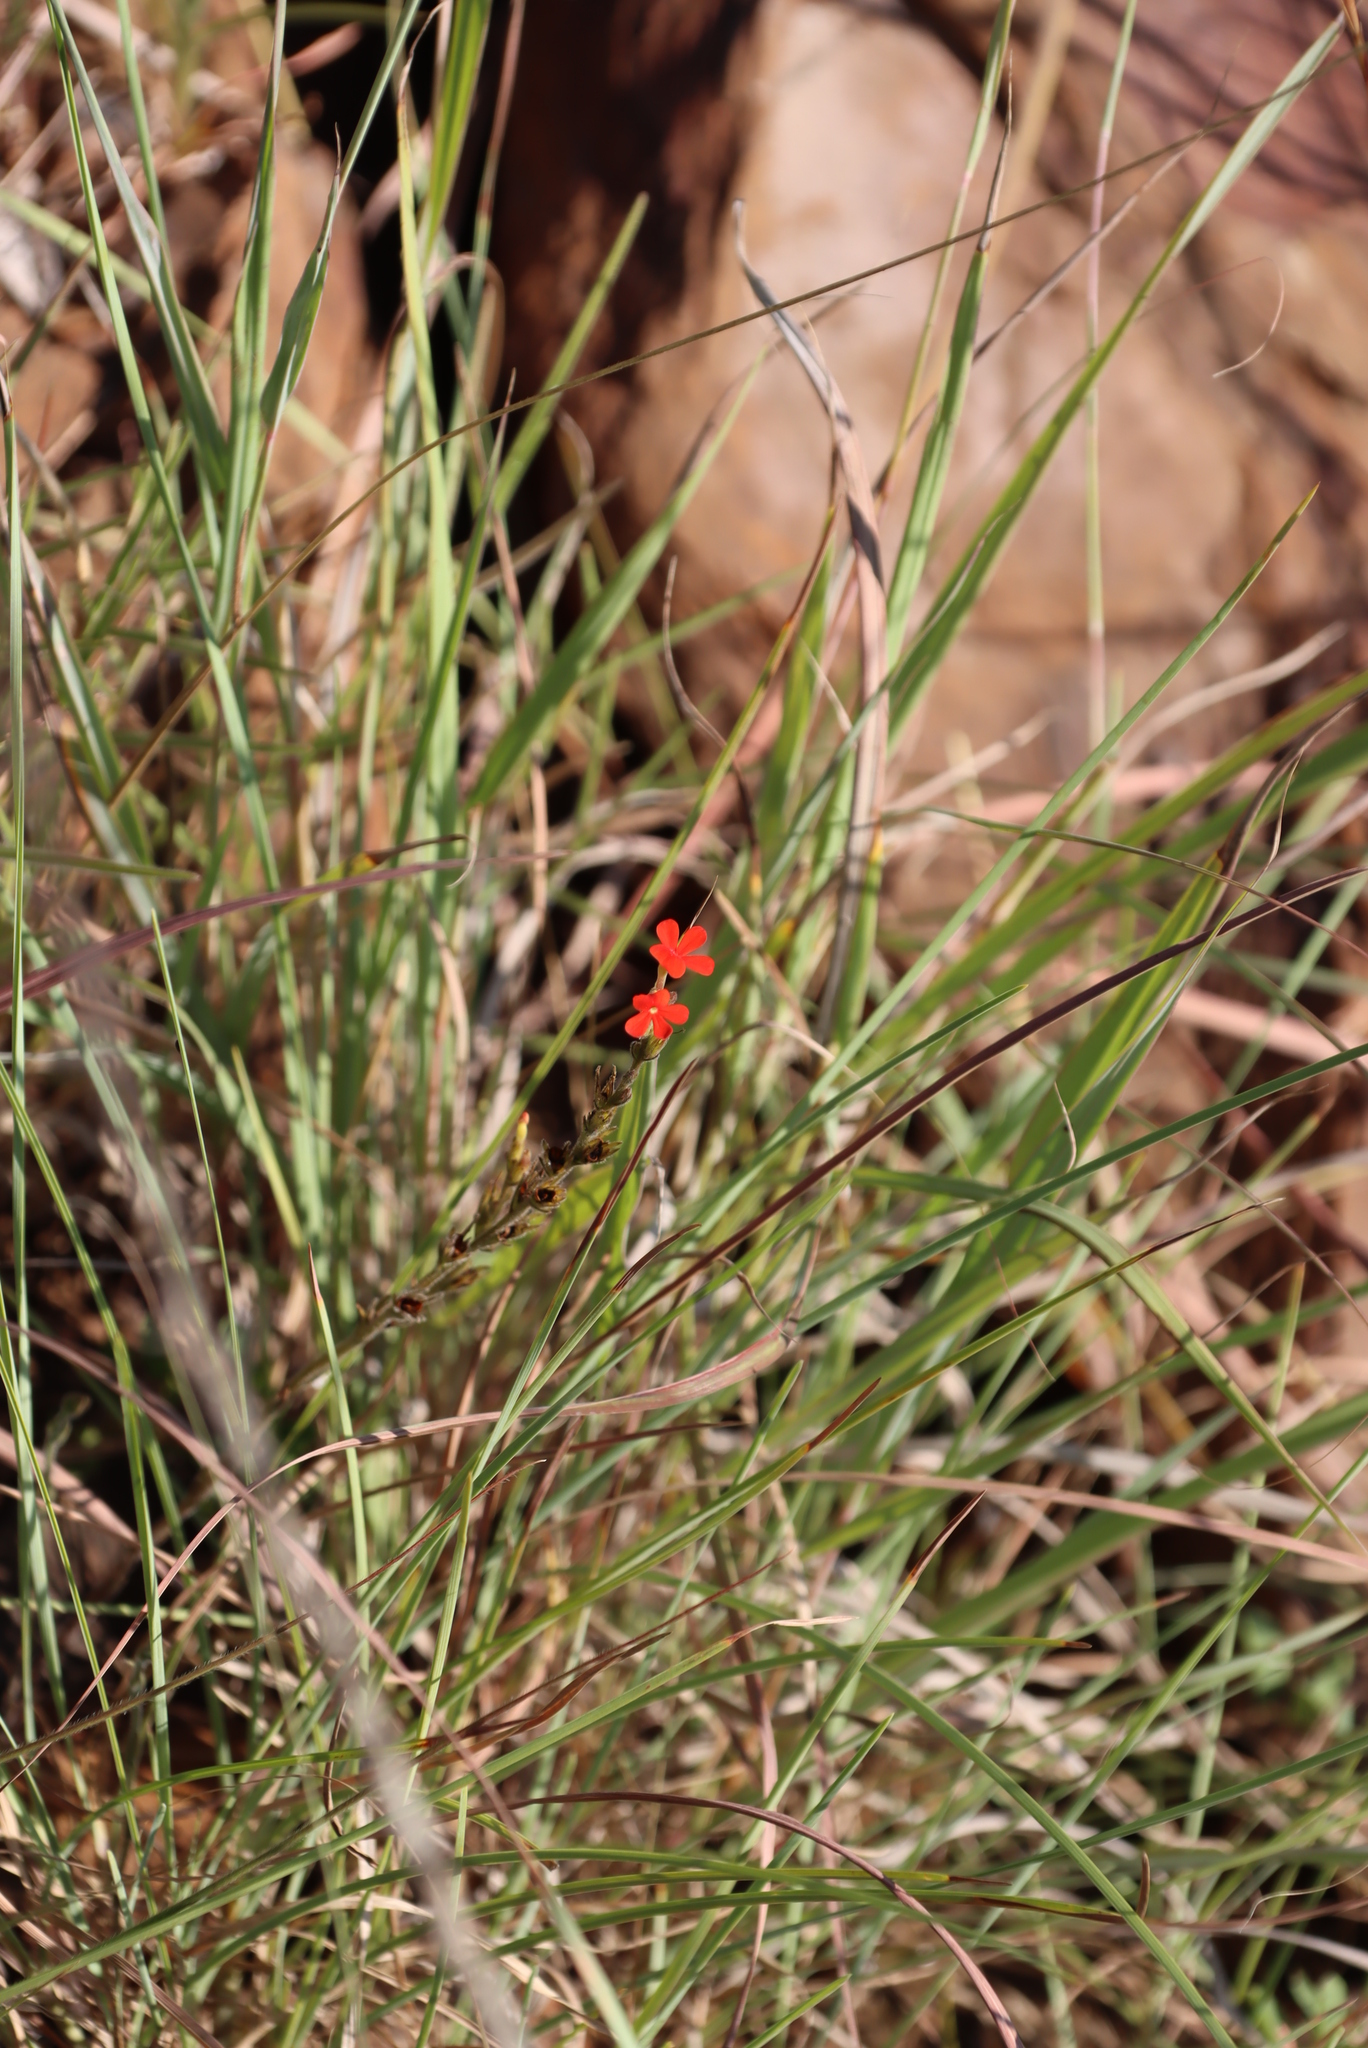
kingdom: Plantae
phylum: Tracheophyta
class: Magnoliopsida
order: Lamiales
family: Orobanchaceae
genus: Striga
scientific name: Striga elegans
